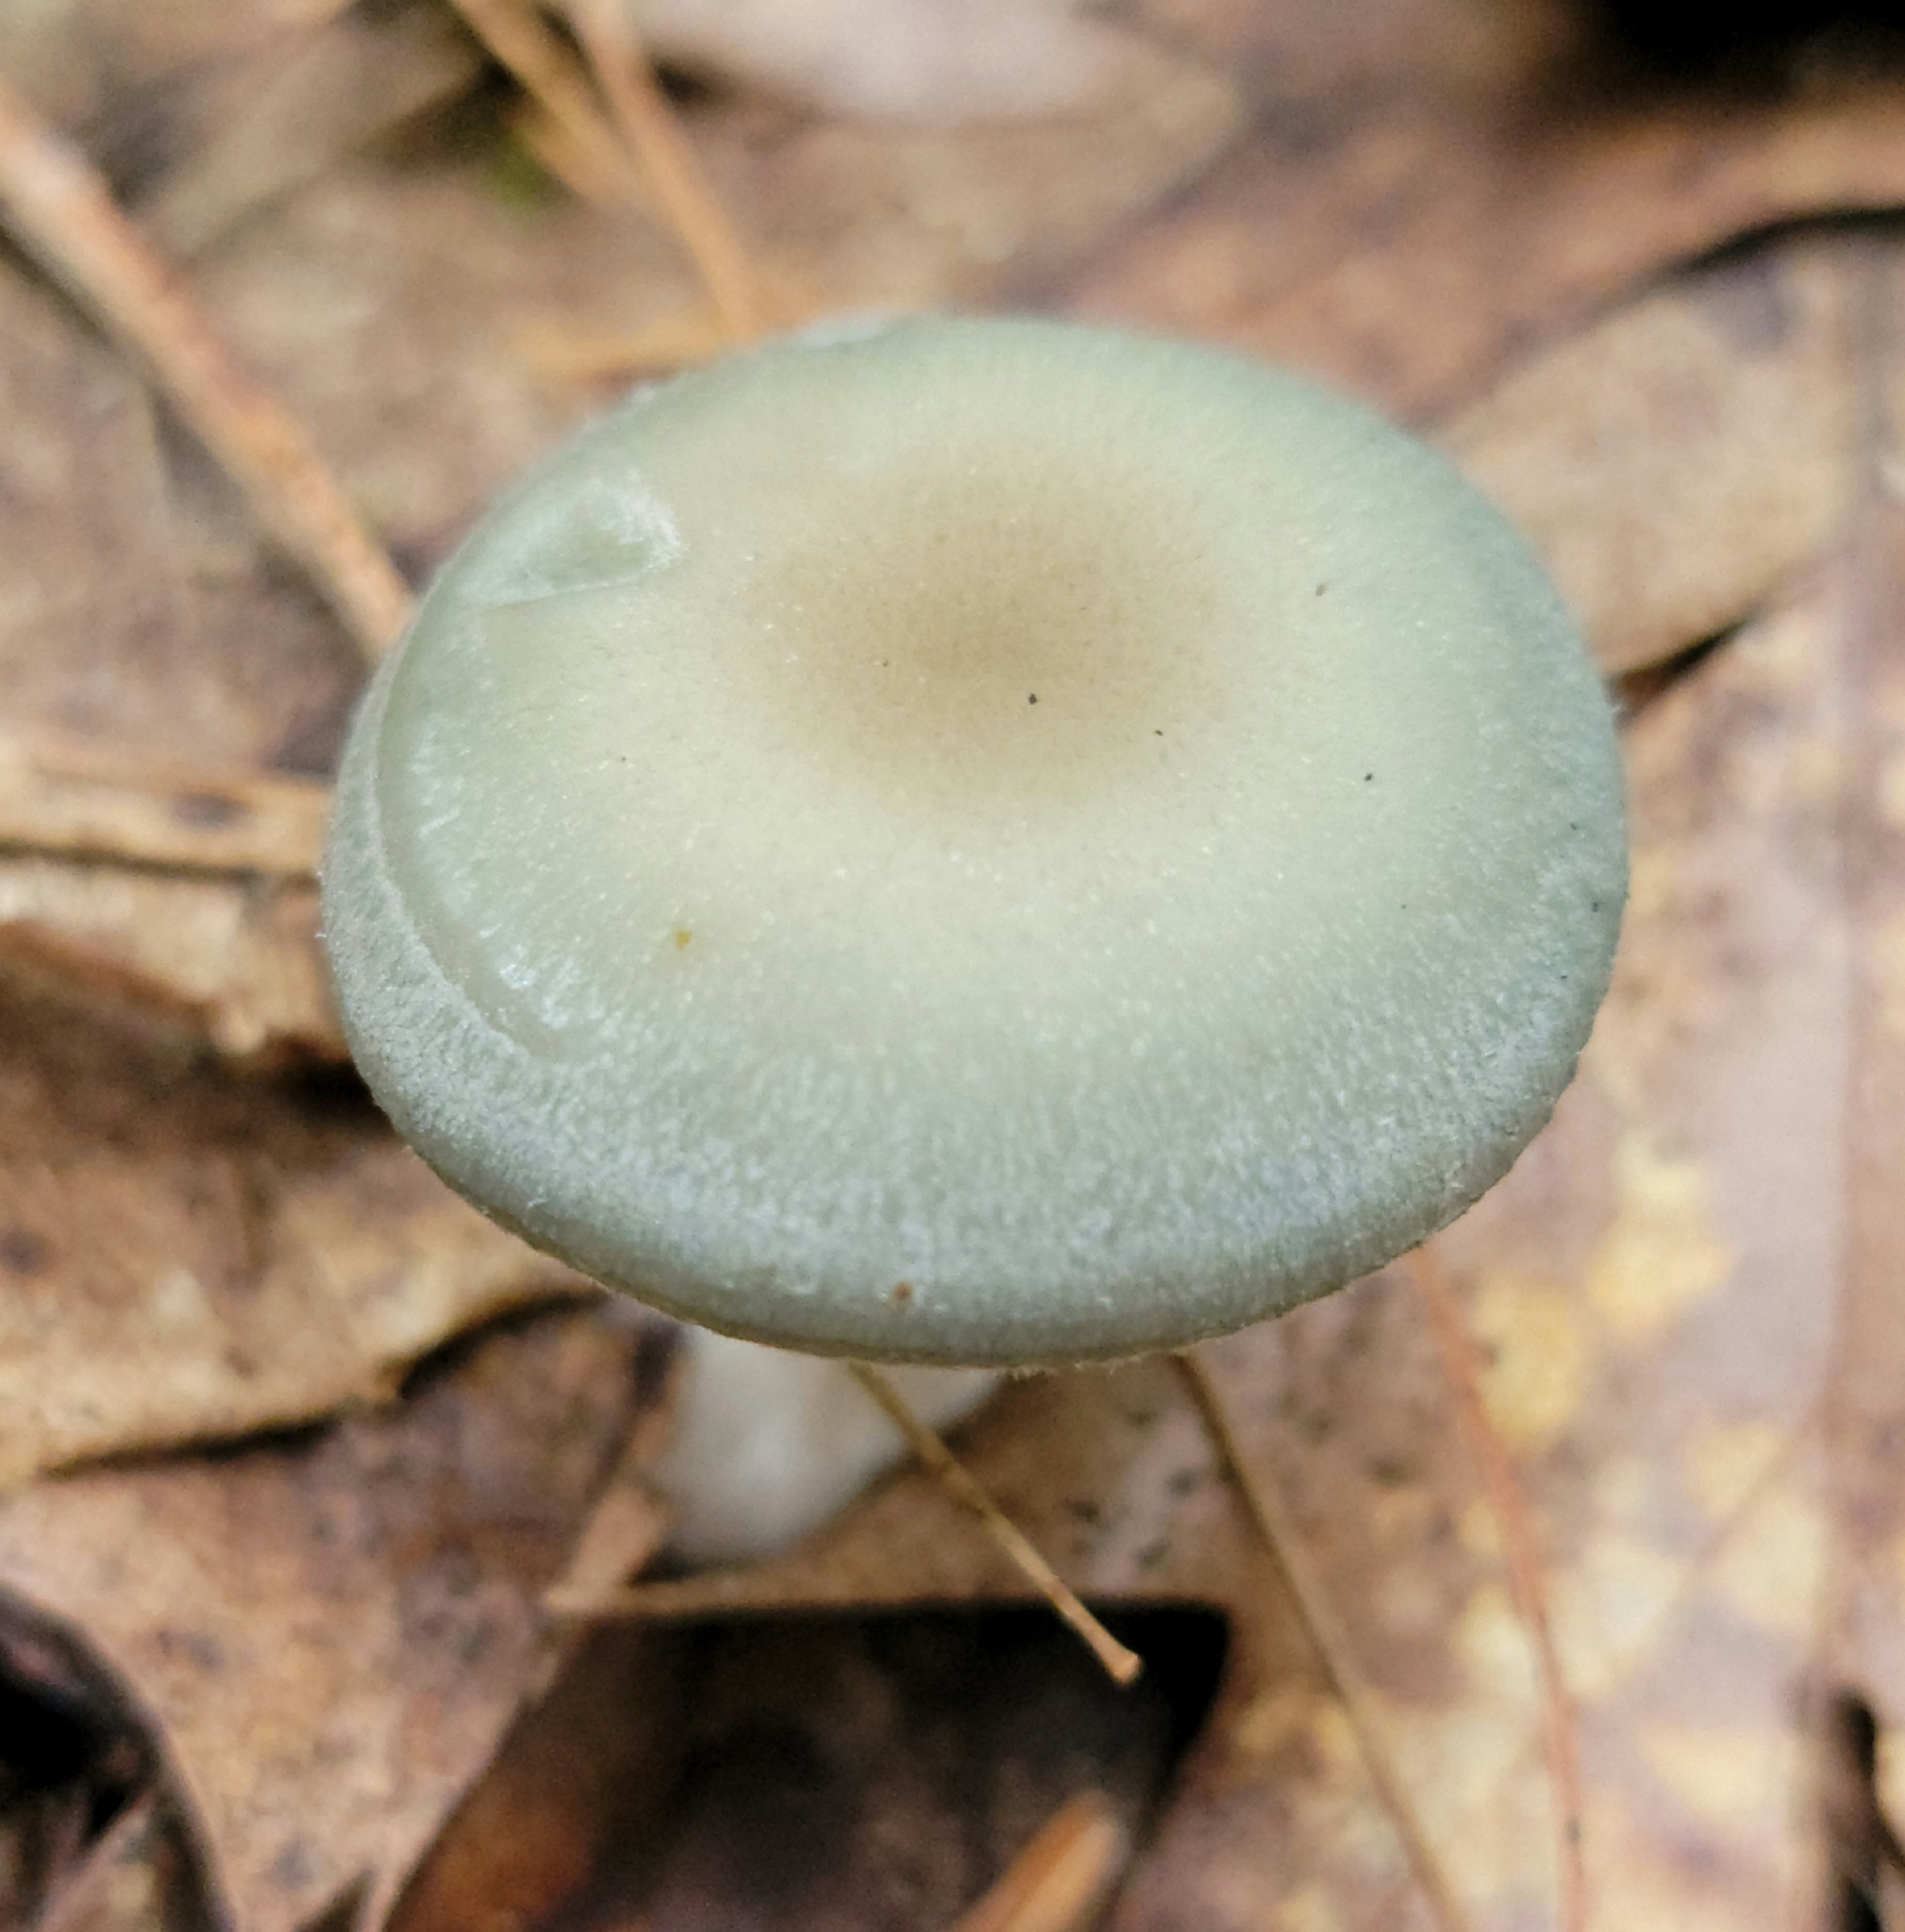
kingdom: Fungi
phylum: Basidiomycota
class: Agaricomycetes
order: Agaricales
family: Tricholomataceae
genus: Collybia
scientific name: Collybia
